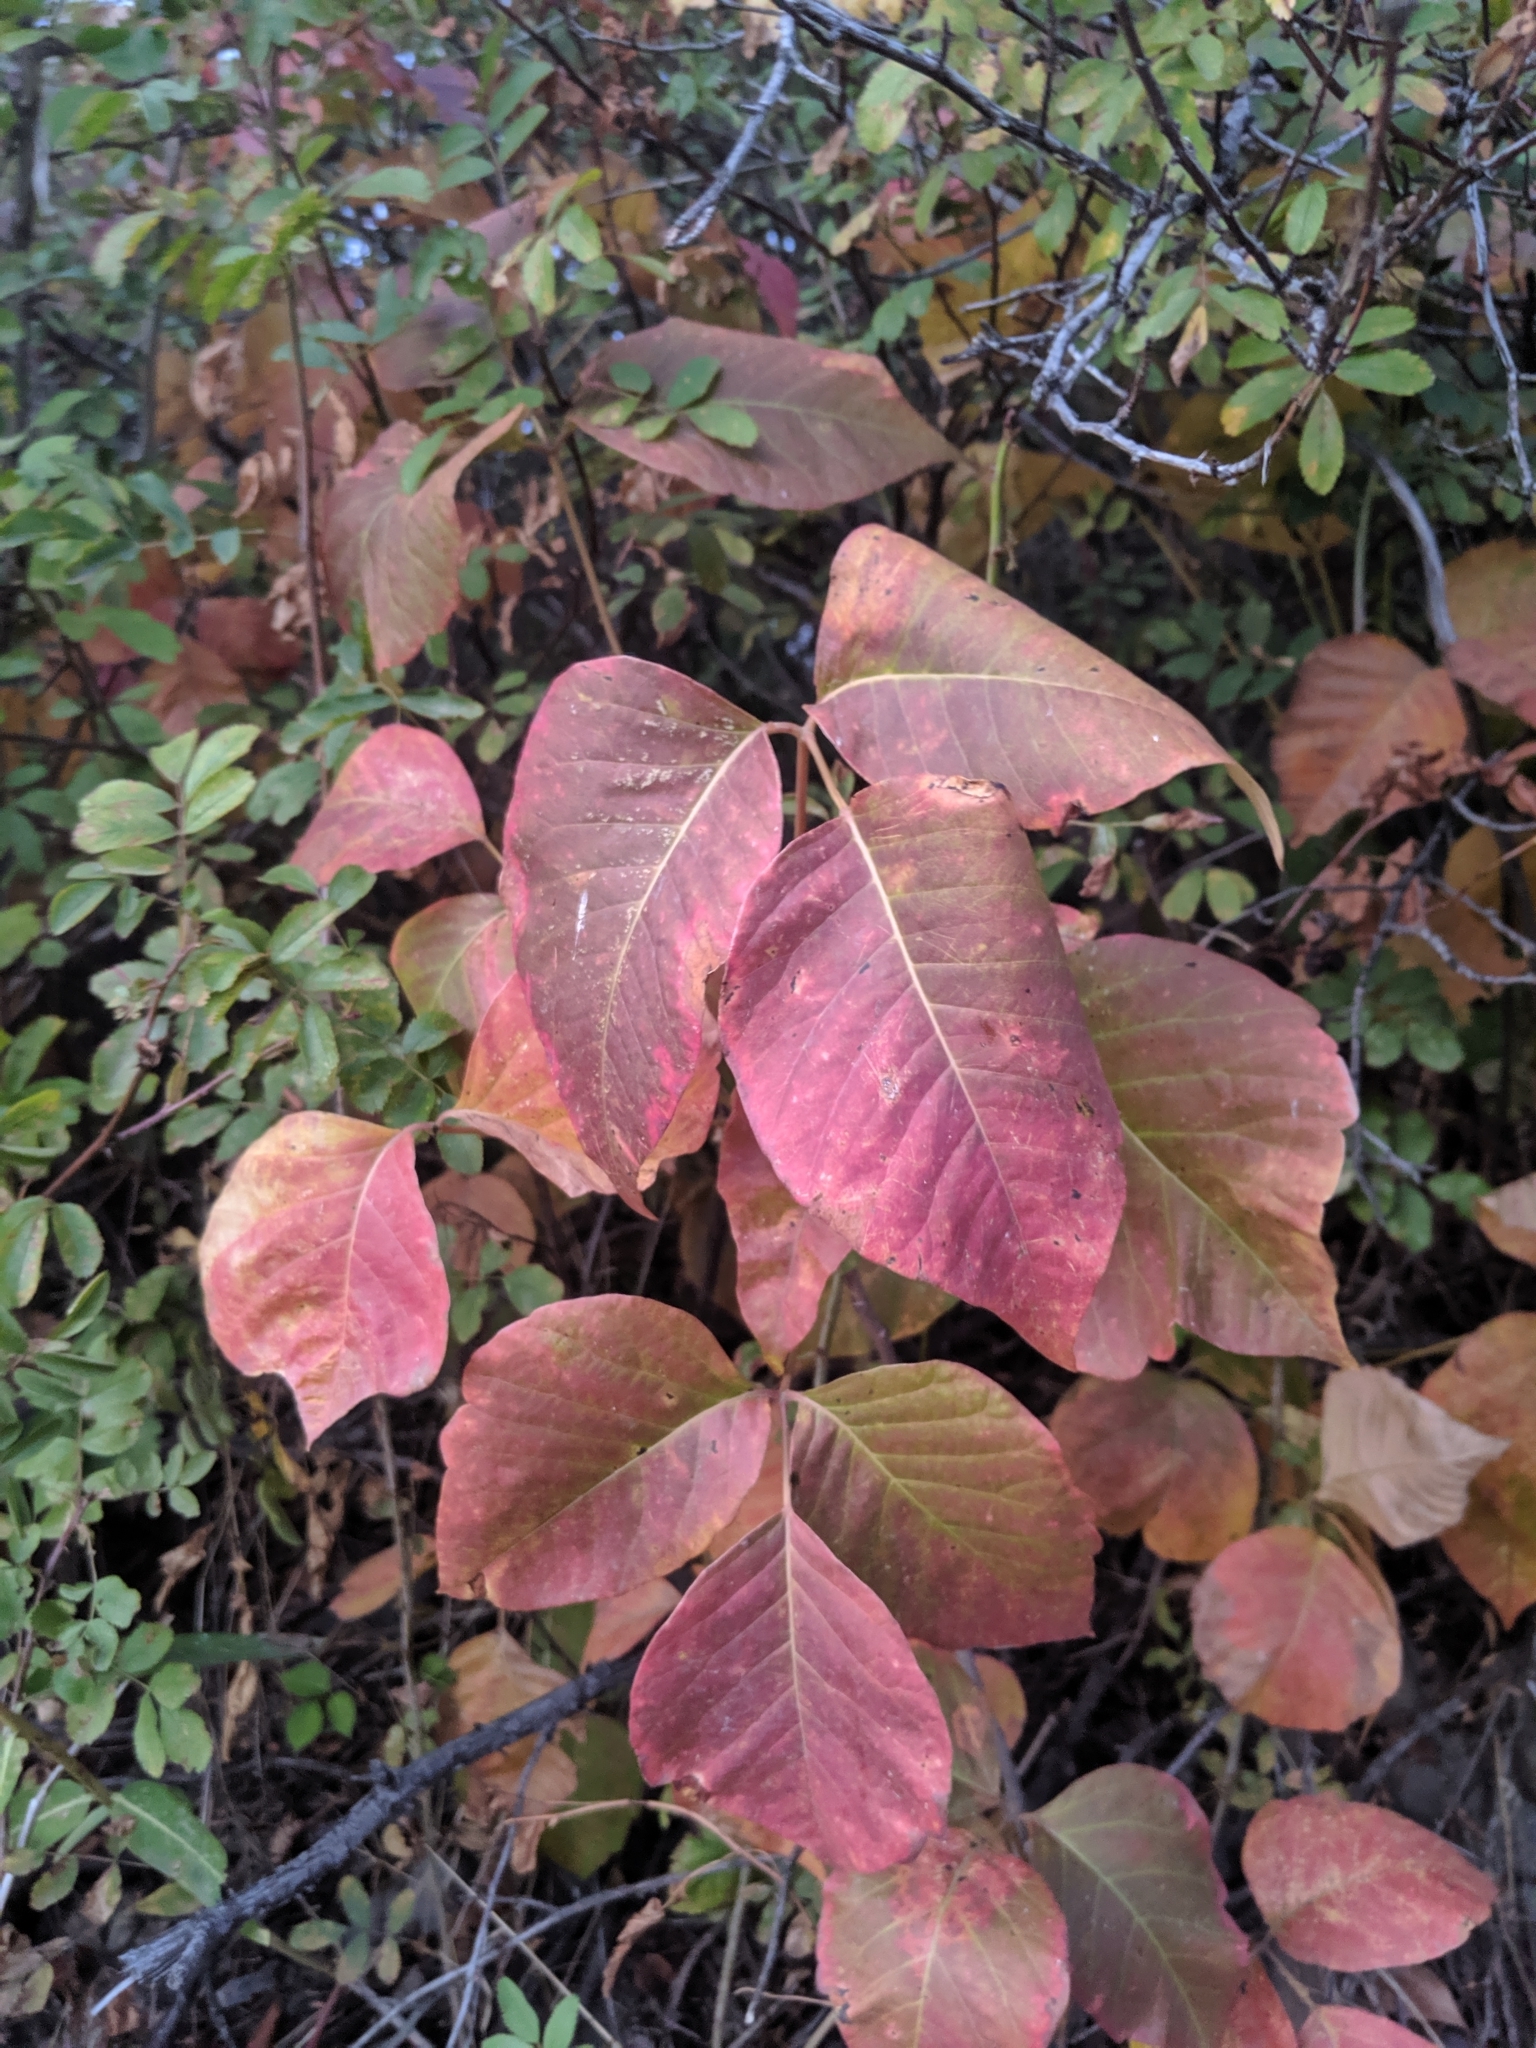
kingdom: Plantae
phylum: Tracheophyta
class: Magnoliopsida
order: Sapindales
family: Anacardiaceae
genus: Toxicodendron
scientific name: Toxicodendron rydbergii
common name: Rydberg's poison-ivy
